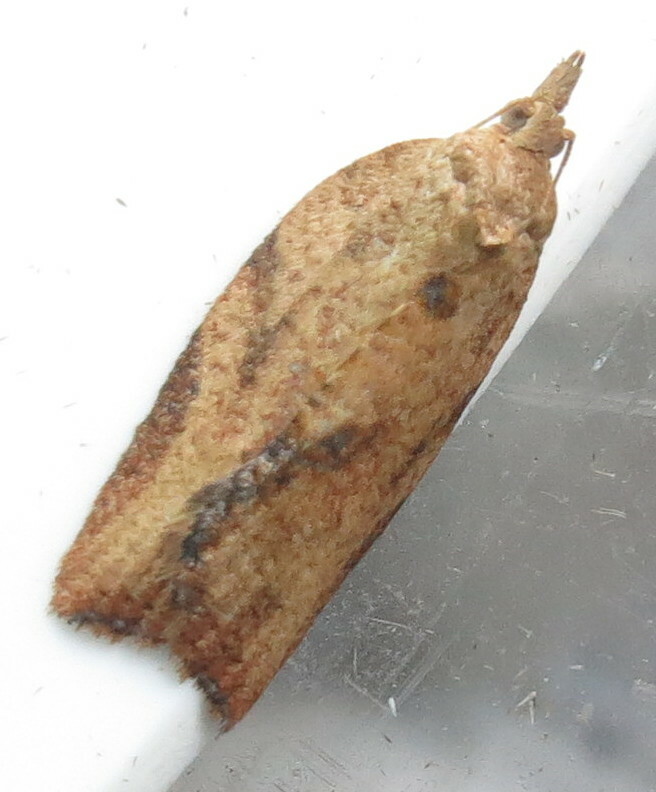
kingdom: Animalia
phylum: Arthropoda
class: Insecta
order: Lepidoptera
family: Tortricidae
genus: Epiphyas
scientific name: Epiphyas postvittana
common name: Light brown apple moth
